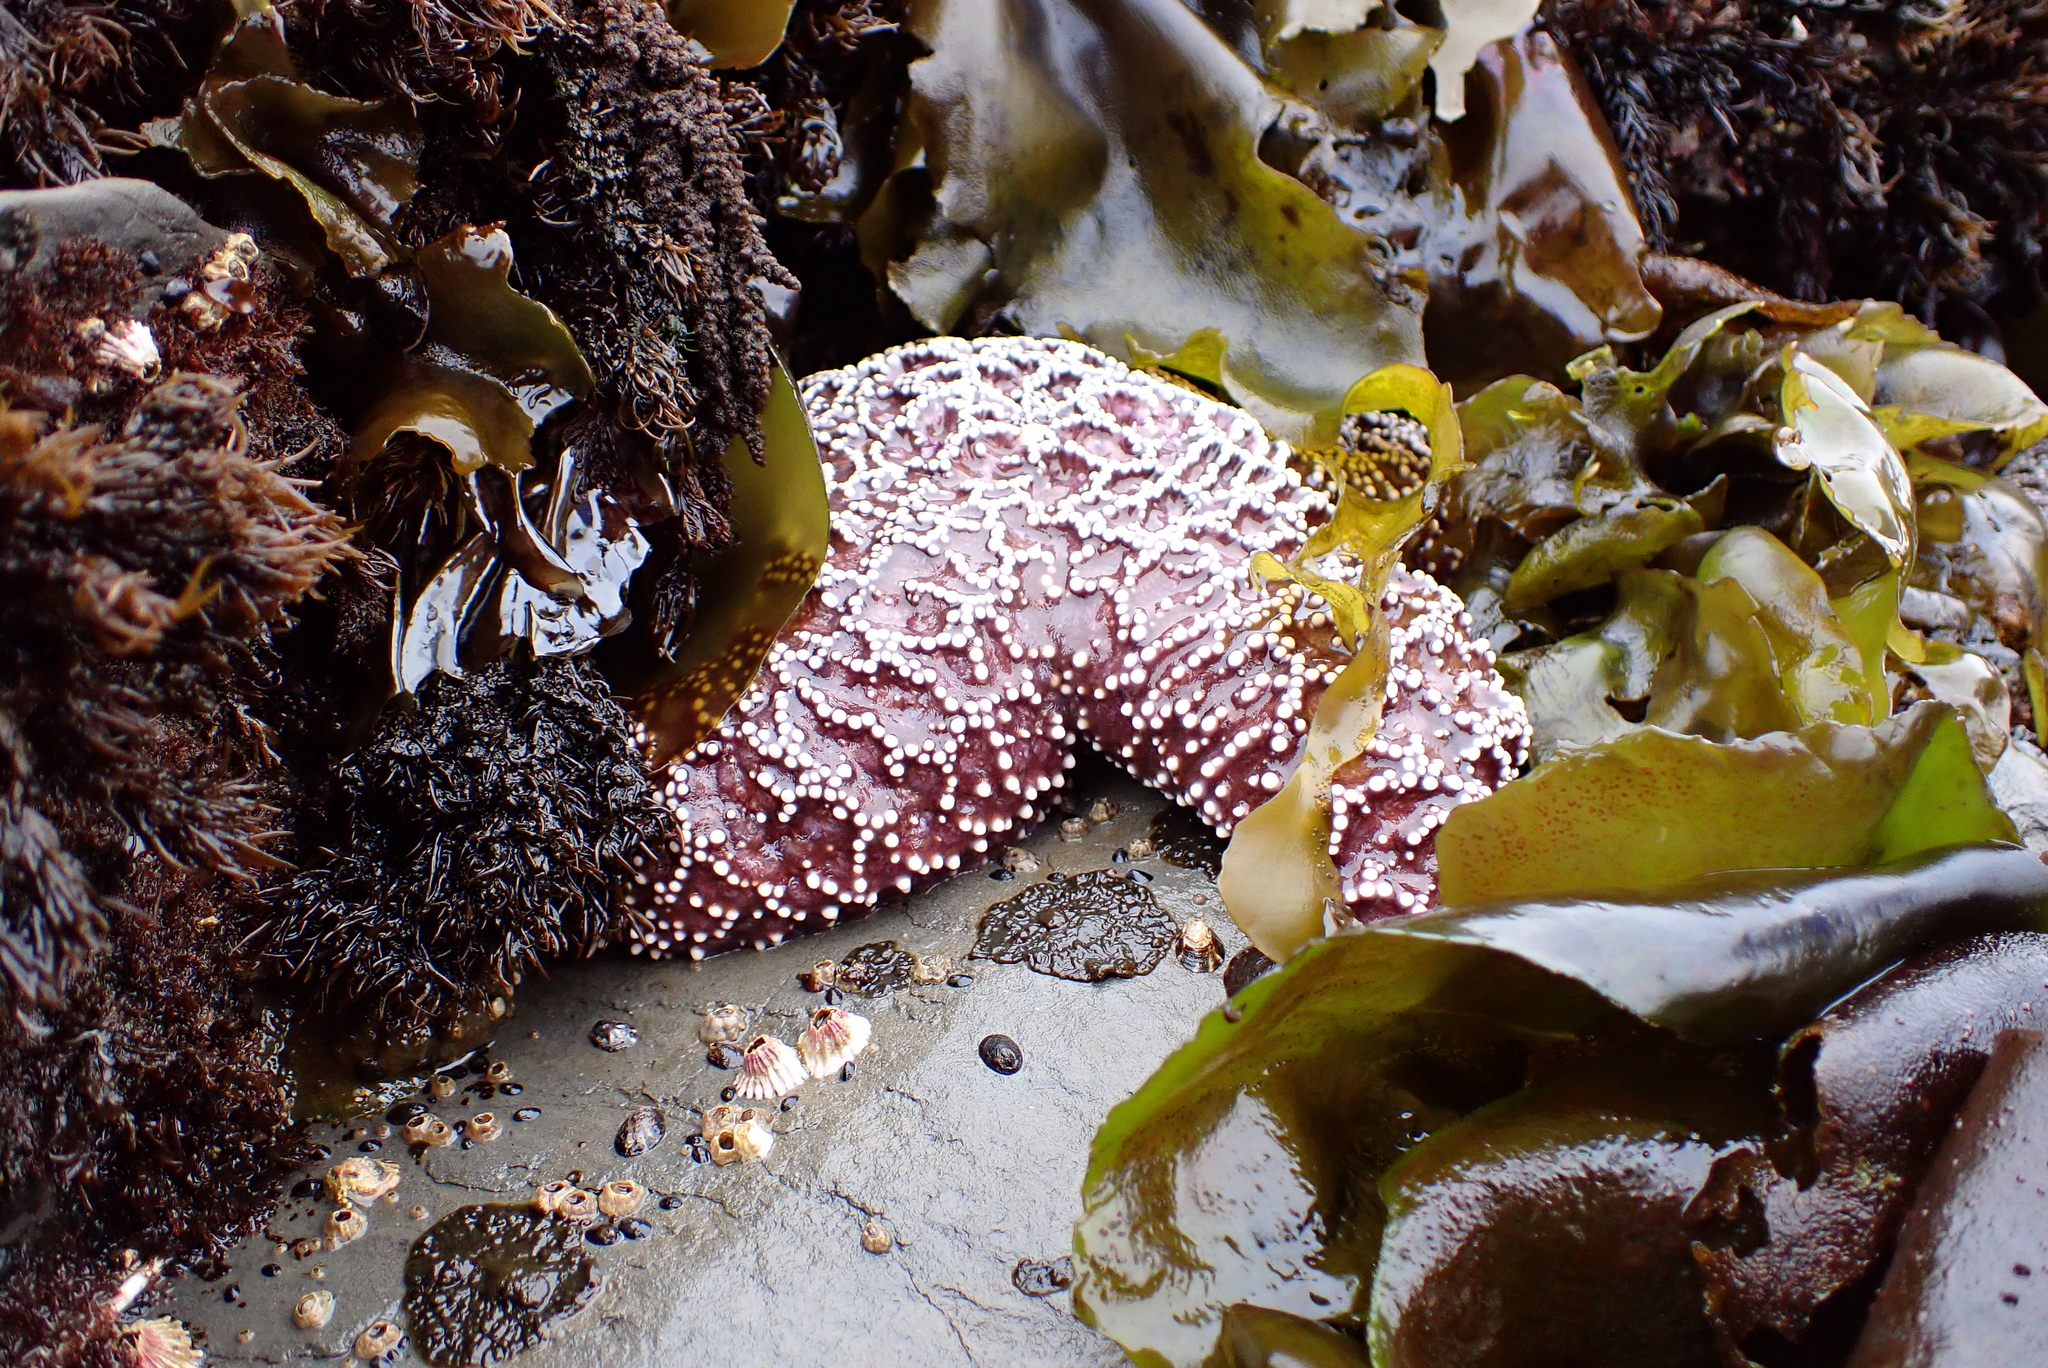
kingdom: Animalia
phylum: Echinodermata
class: Asteroidea
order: Forcipulatida
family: Asteriidae
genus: Pisaster
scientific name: Pisaster ochraceus
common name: Ochre stars
